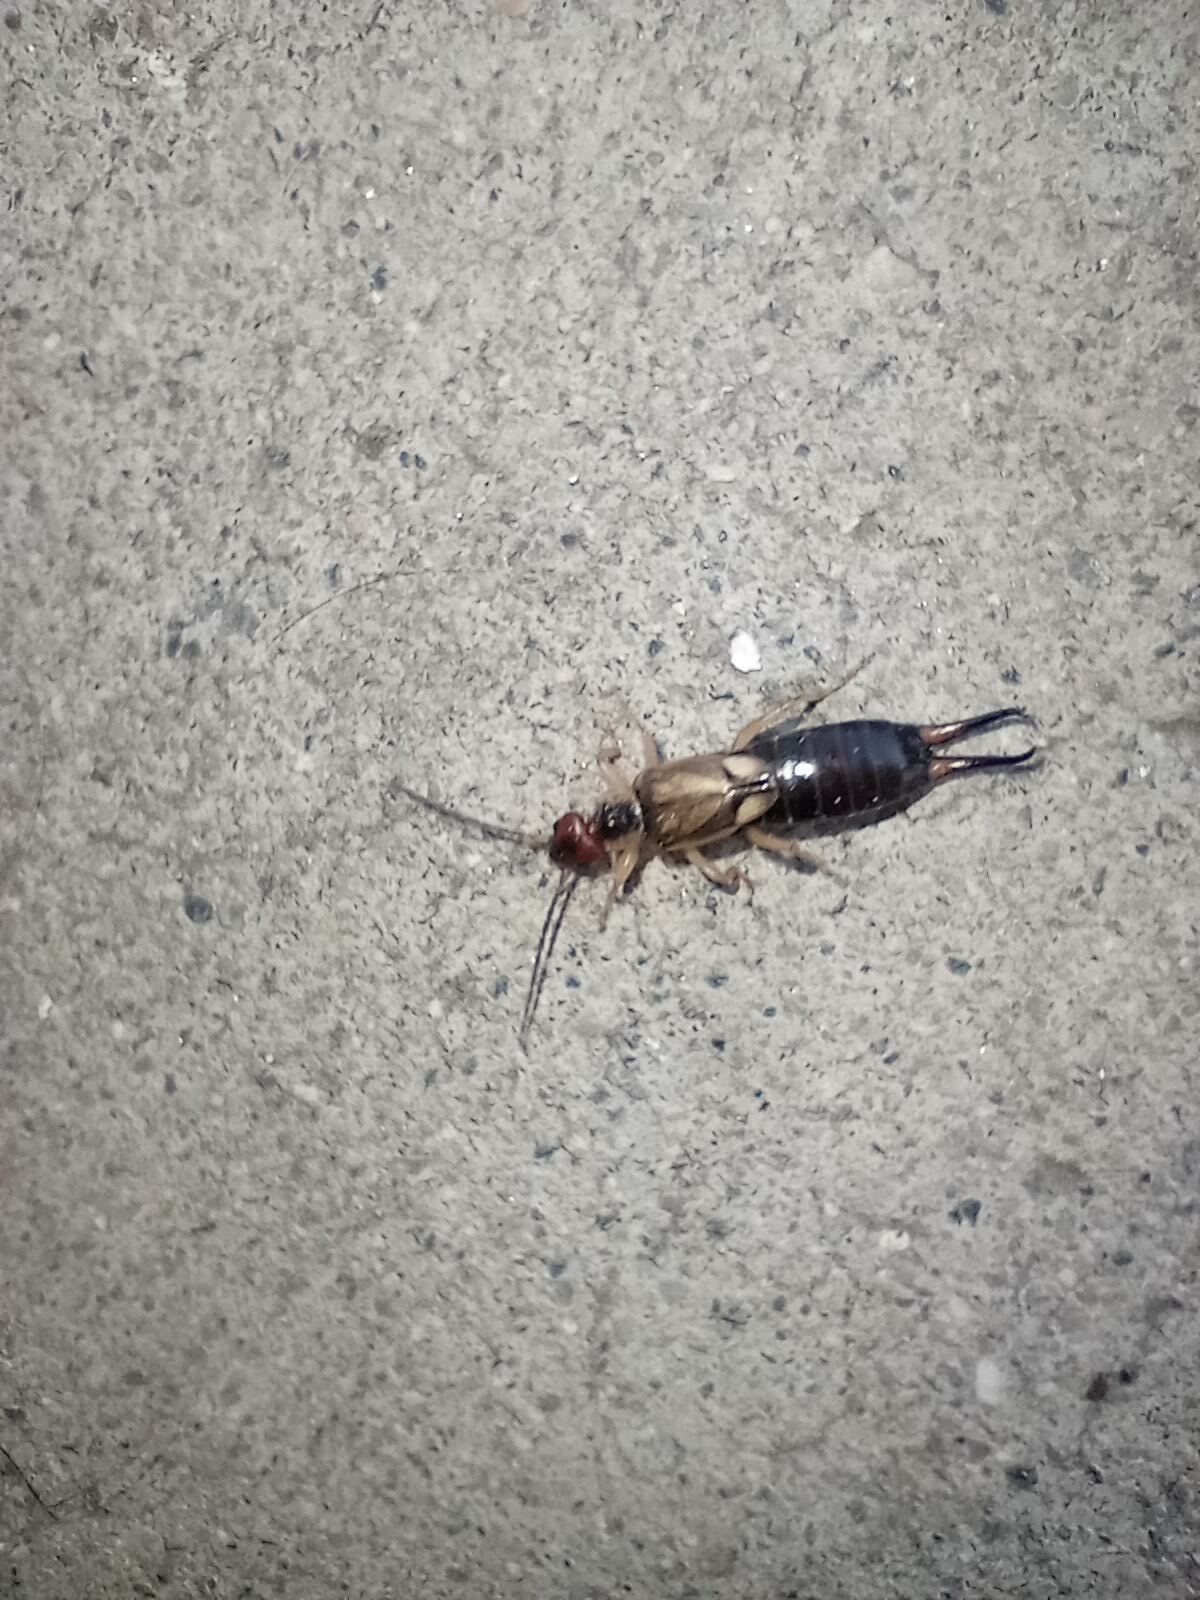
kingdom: Animalia
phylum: Arthropoda
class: Insecta
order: Dermaptera
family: Forficulidae
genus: Forficula
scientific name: Forficula dentata
